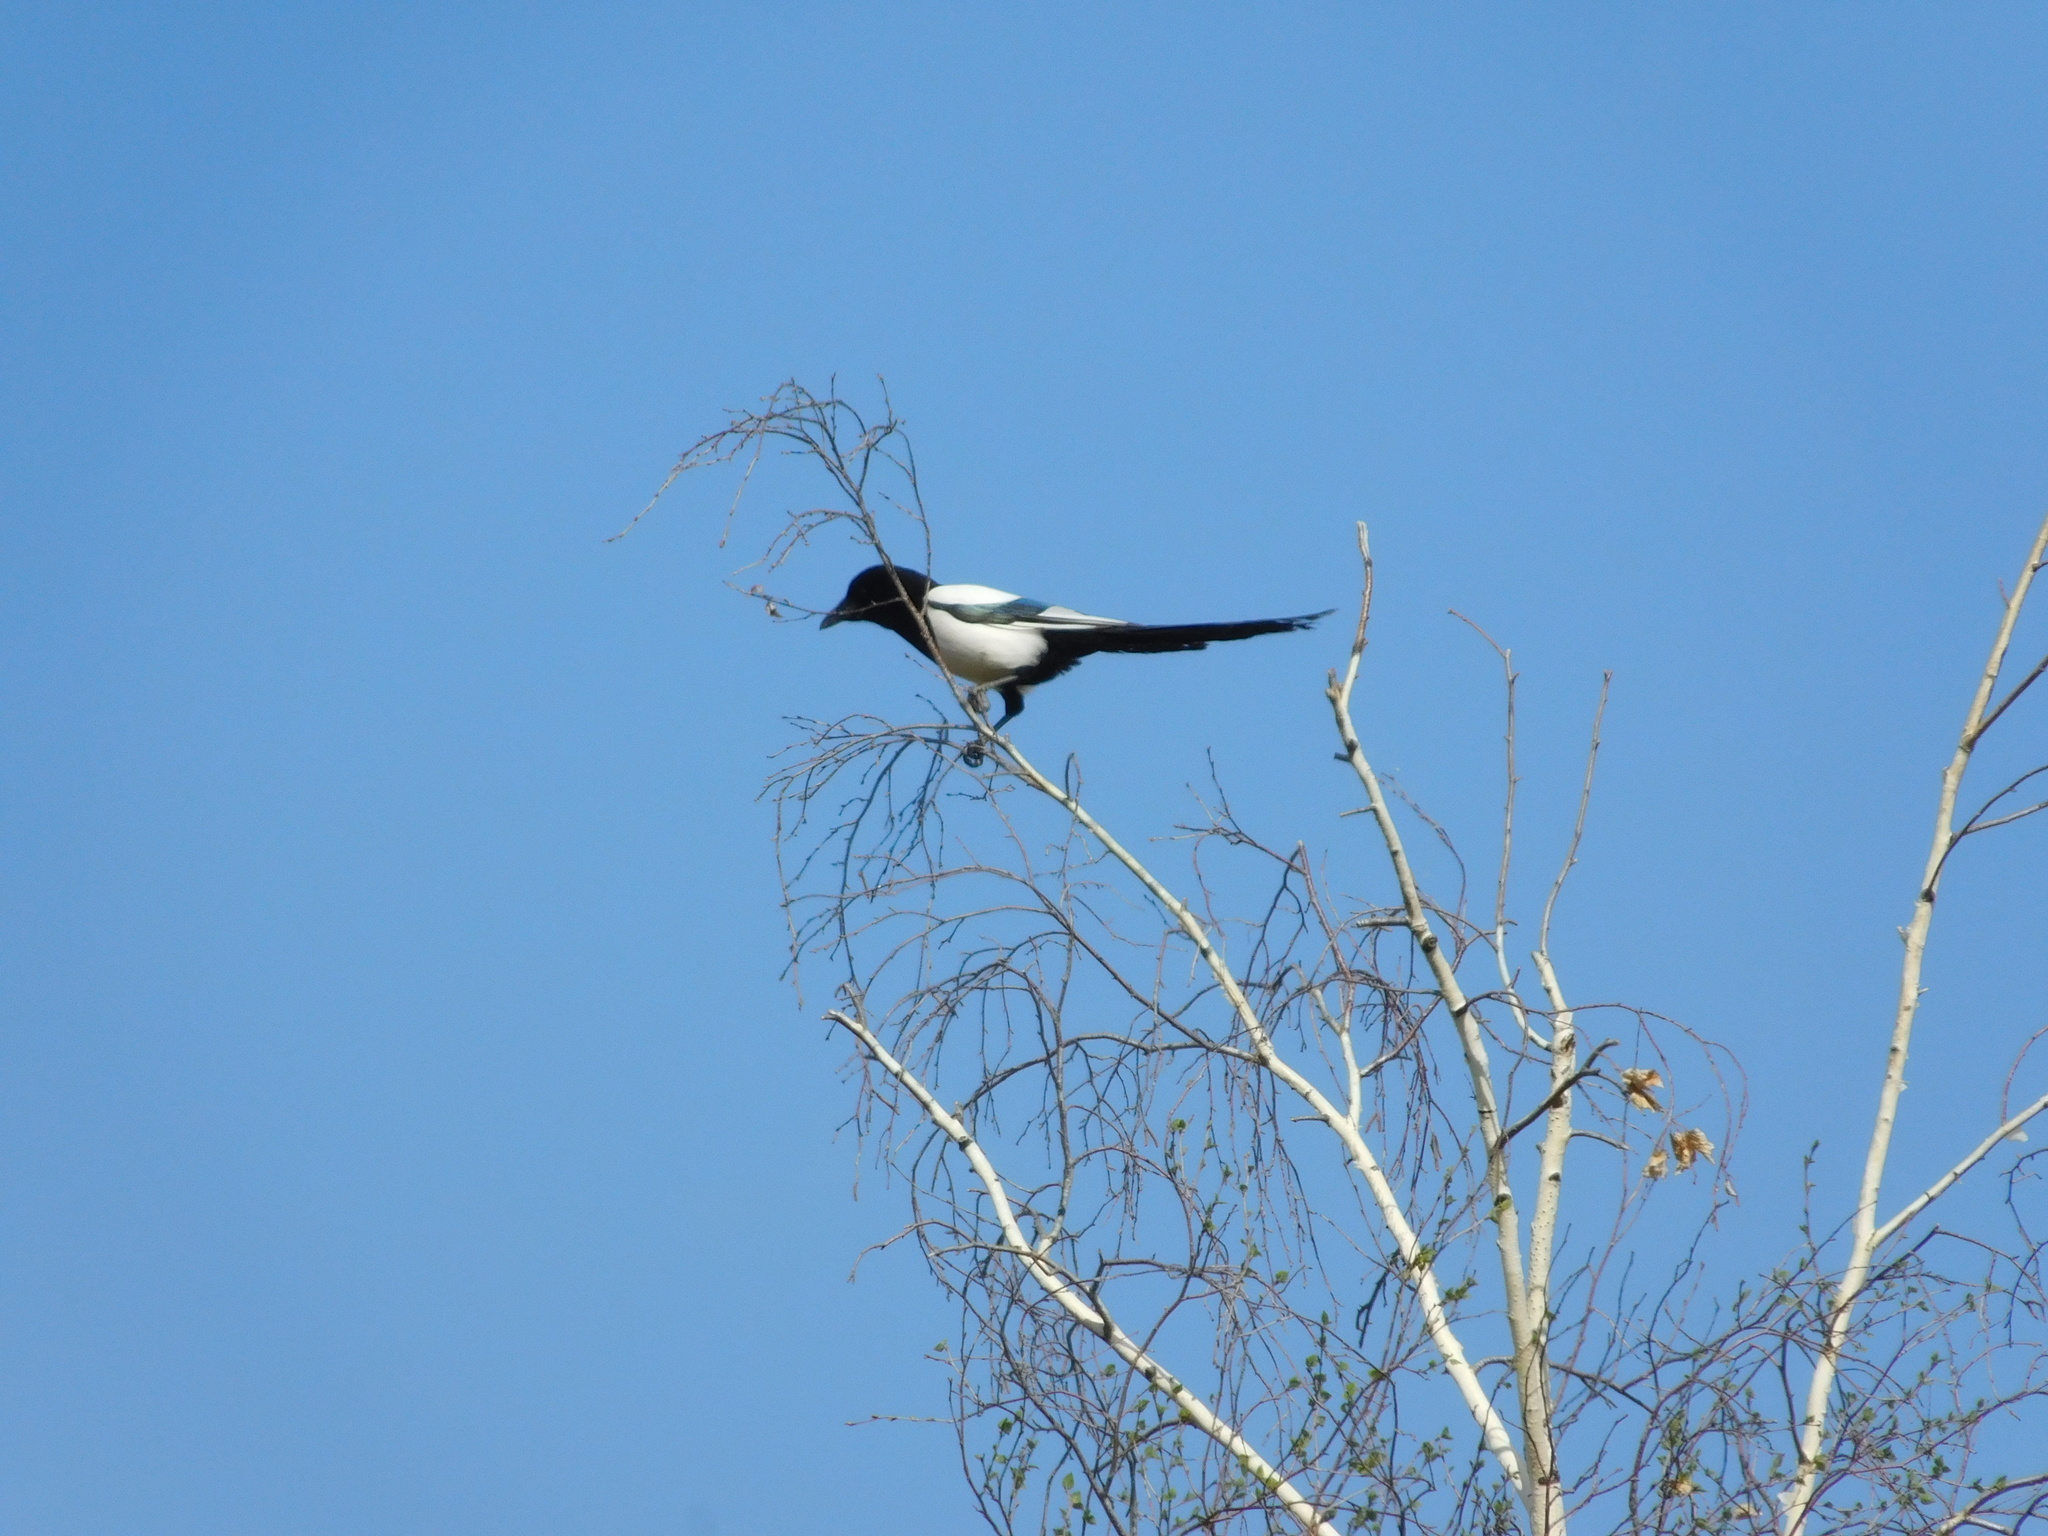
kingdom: Animalia
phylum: Chordata
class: Aves
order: Passeriformes
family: Corvidae
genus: Pica
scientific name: Pica pica
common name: Eurasian magpie
